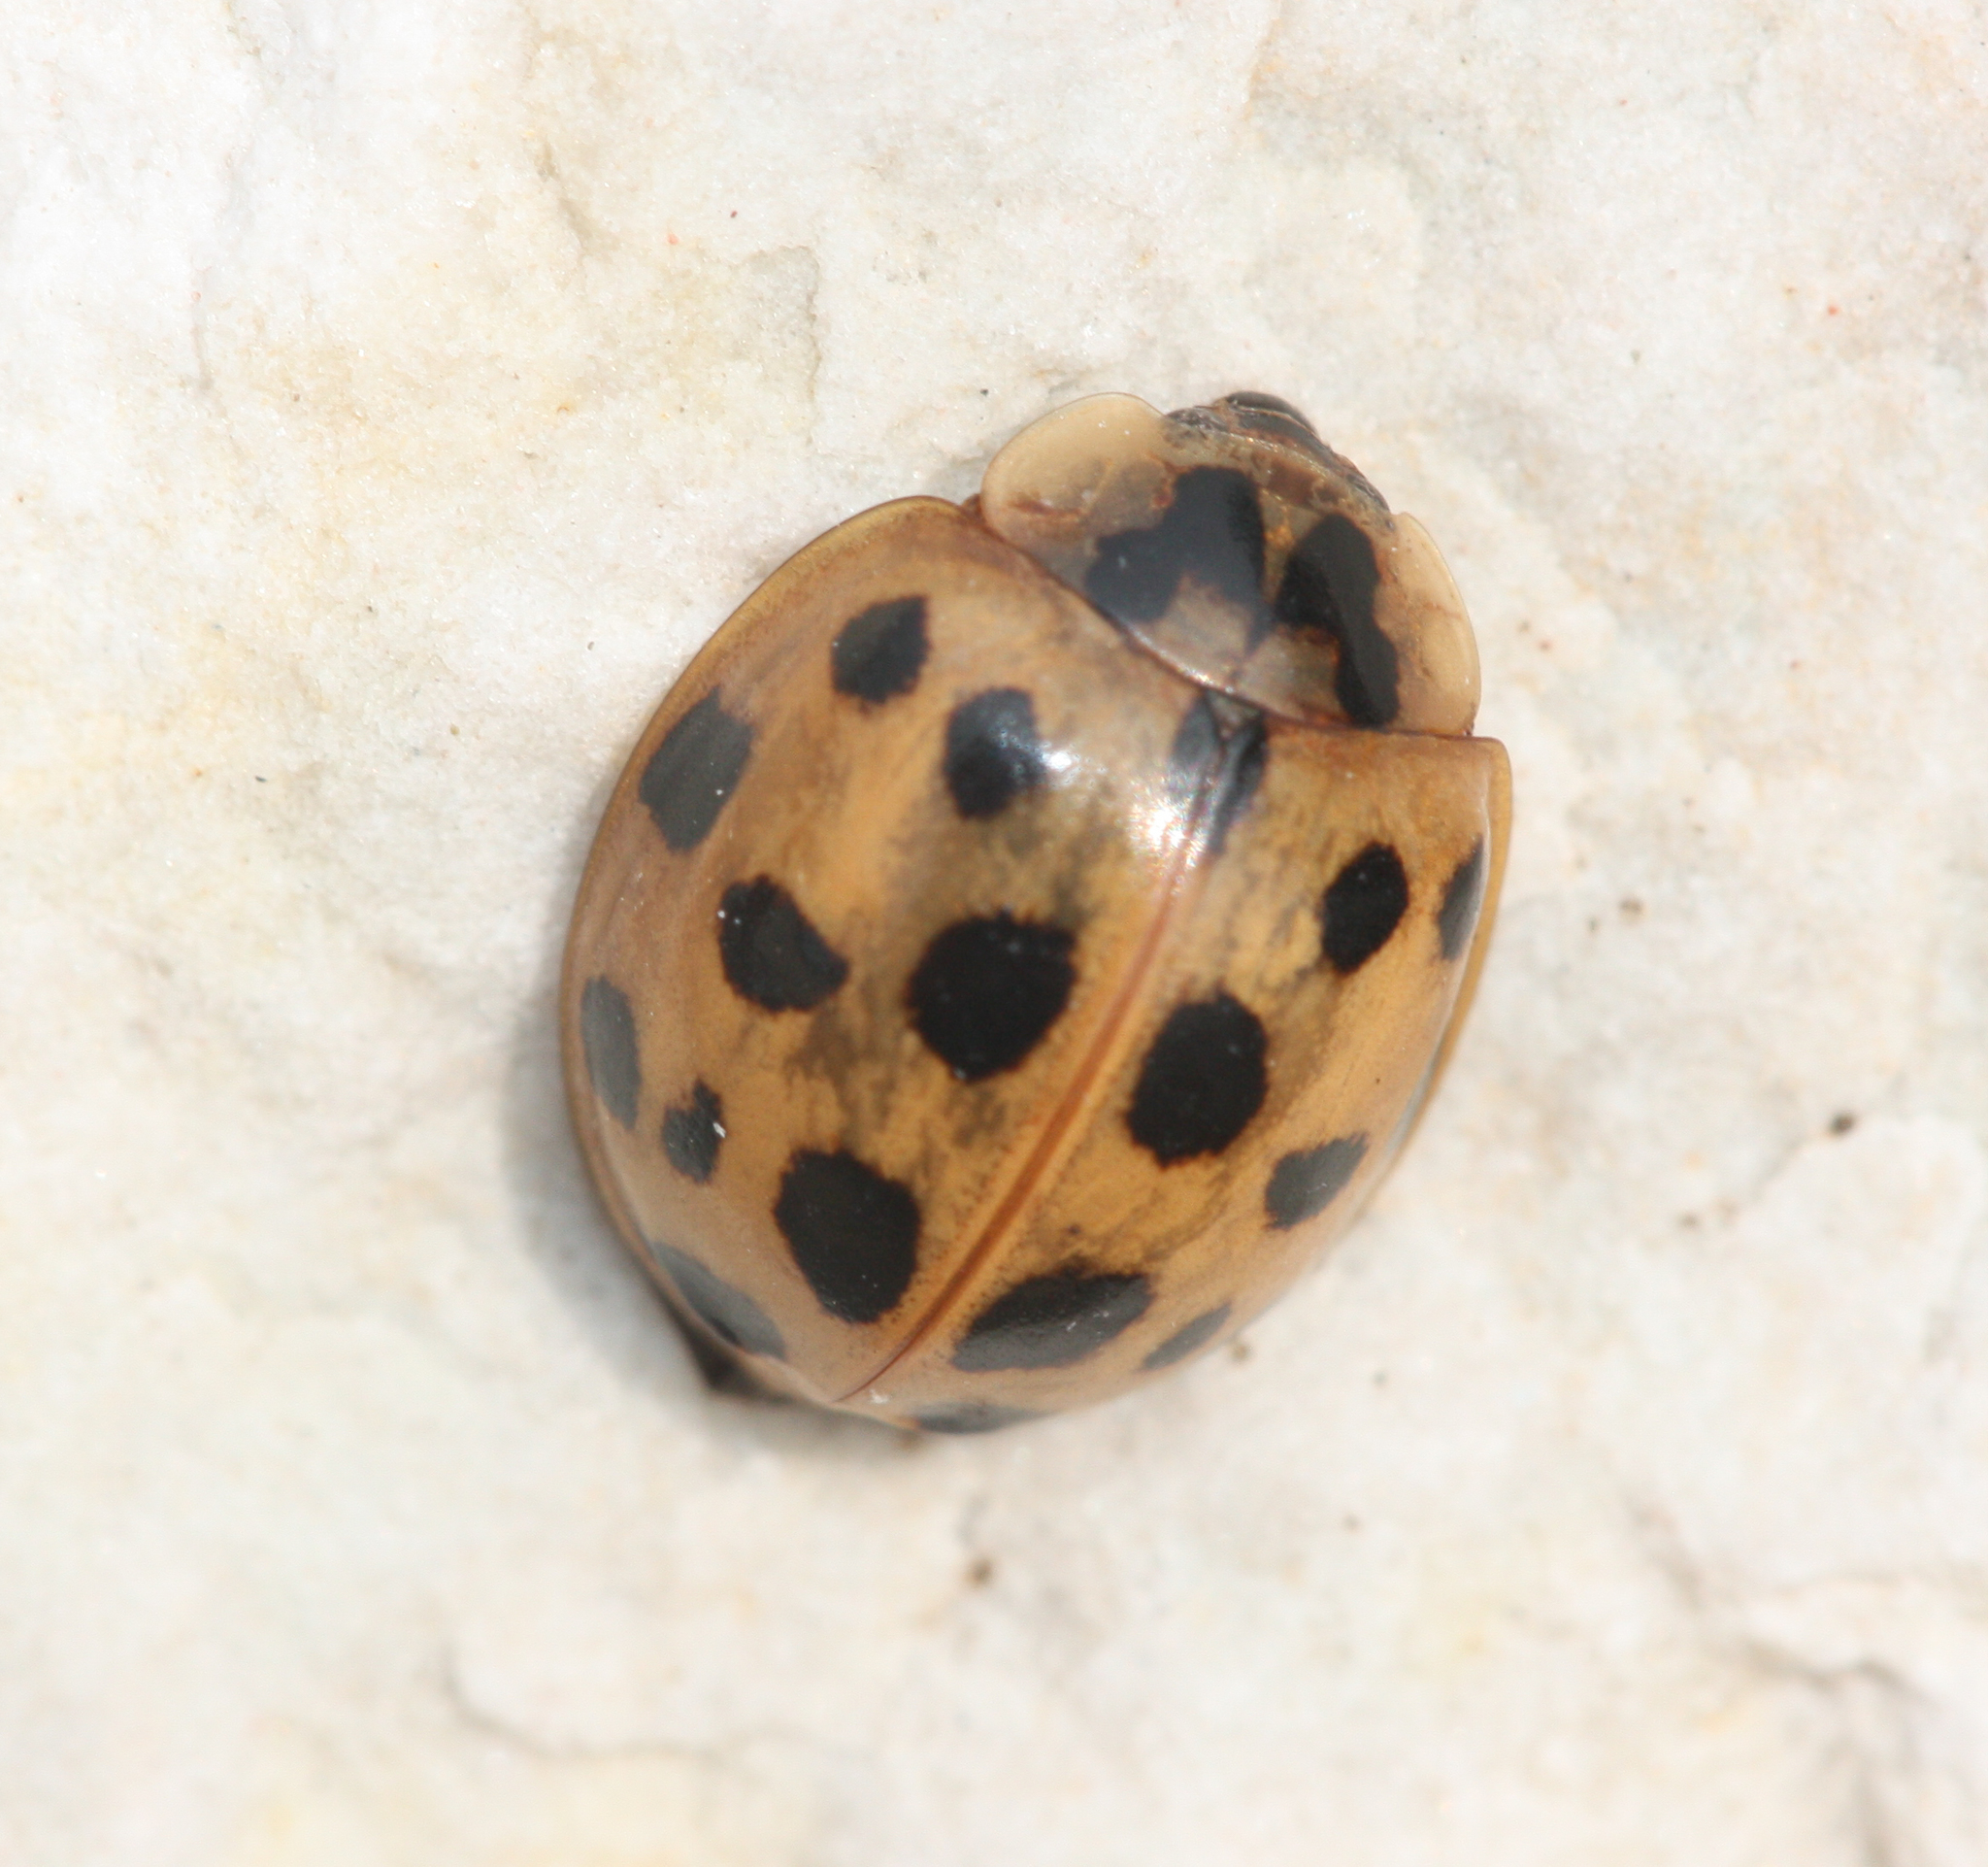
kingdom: Animalia
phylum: Arthropoda
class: Insecta
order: Coleoptera
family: Coccinellidae
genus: Harmonia
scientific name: Harmonia axyridis
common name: Harlequin ladybird
